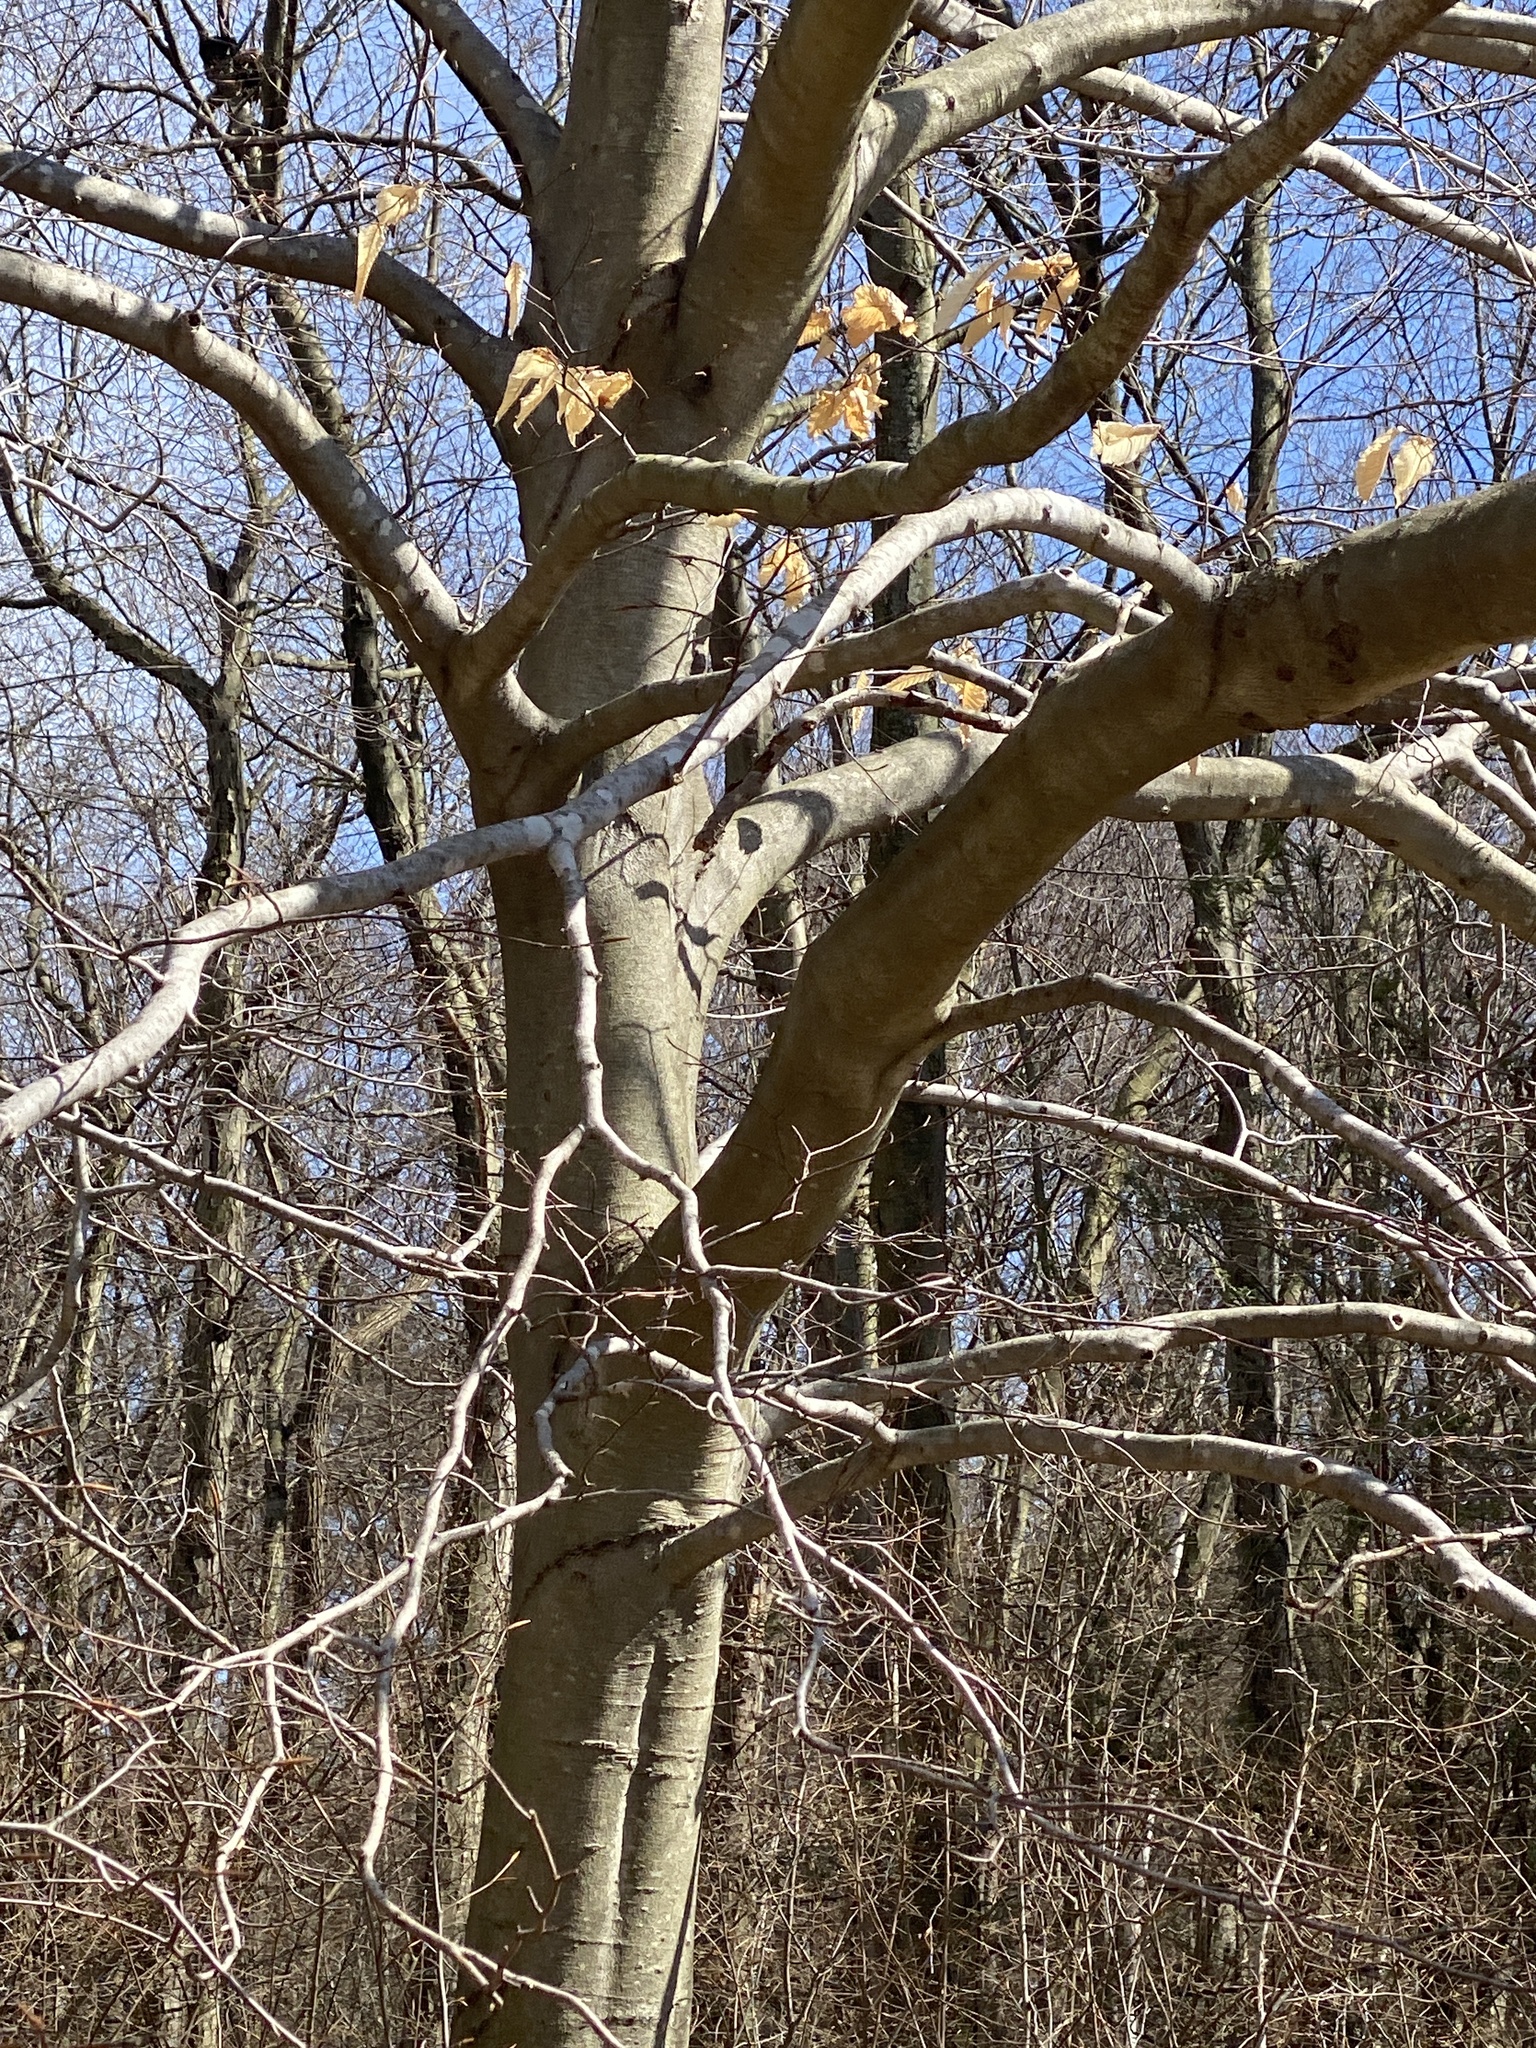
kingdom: Plantae
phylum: Tracheophyta
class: Magnoliopsida
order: Fagales
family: Fagaceae
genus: Fagus
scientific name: Fagus grandifolia
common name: American beech
